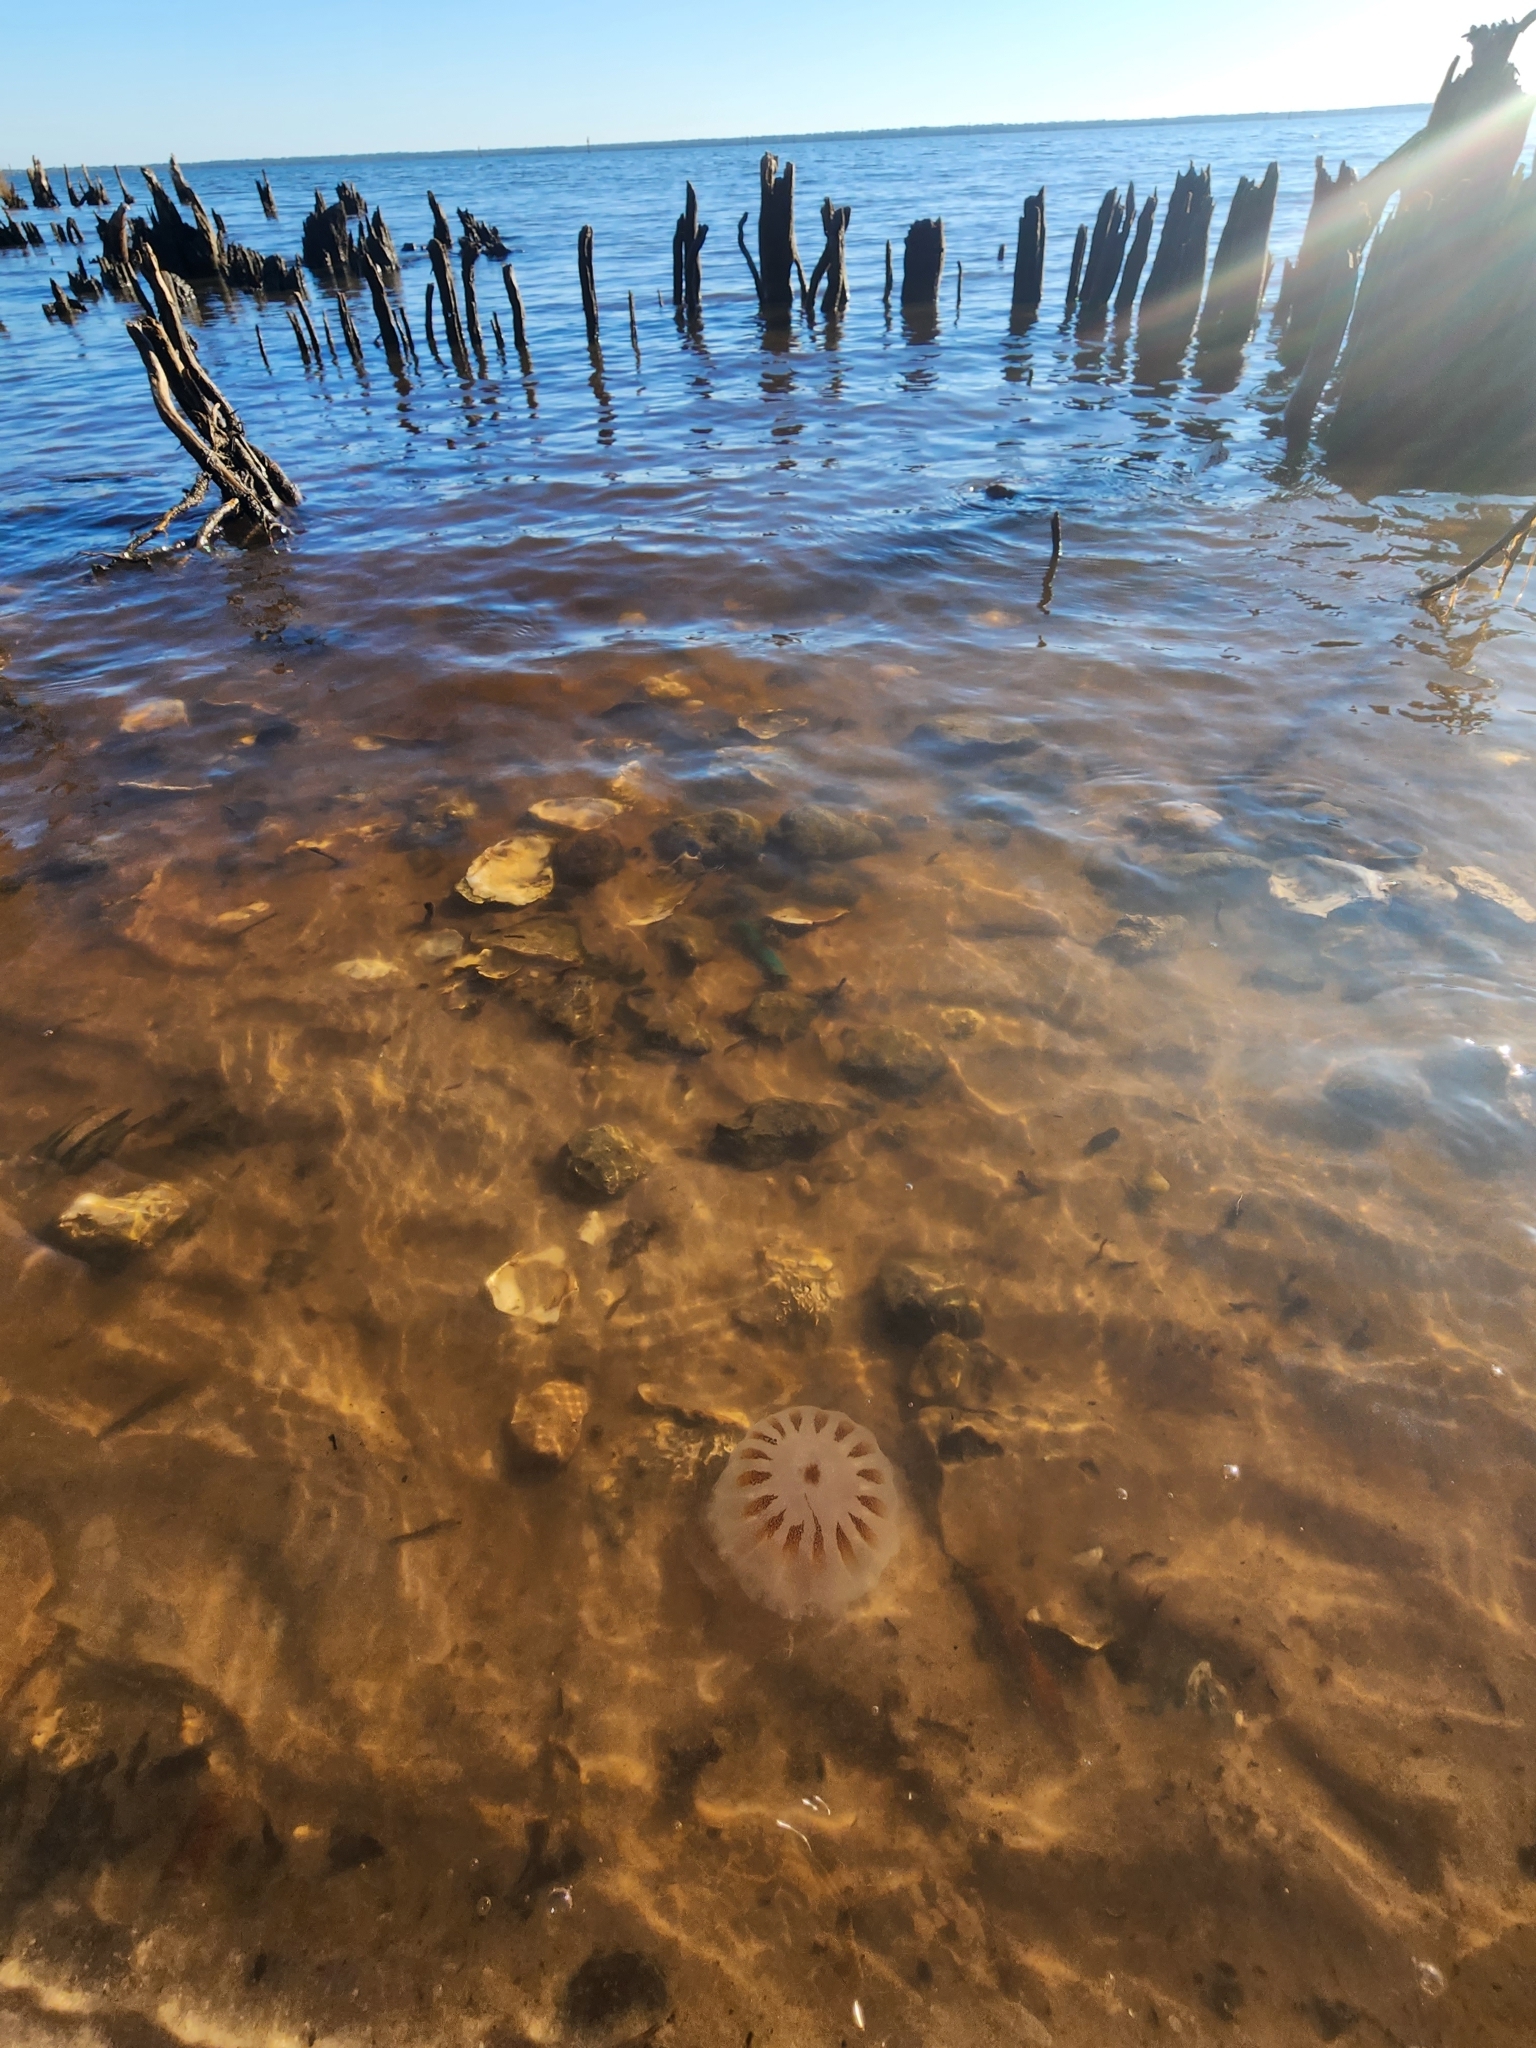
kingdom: Animalia
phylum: Cnidaria
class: Scyphozoa
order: Semaeostomeae
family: Pelagiidae
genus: Chrysaora
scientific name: Chrysaora chesapeakei
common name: Bay nettle
